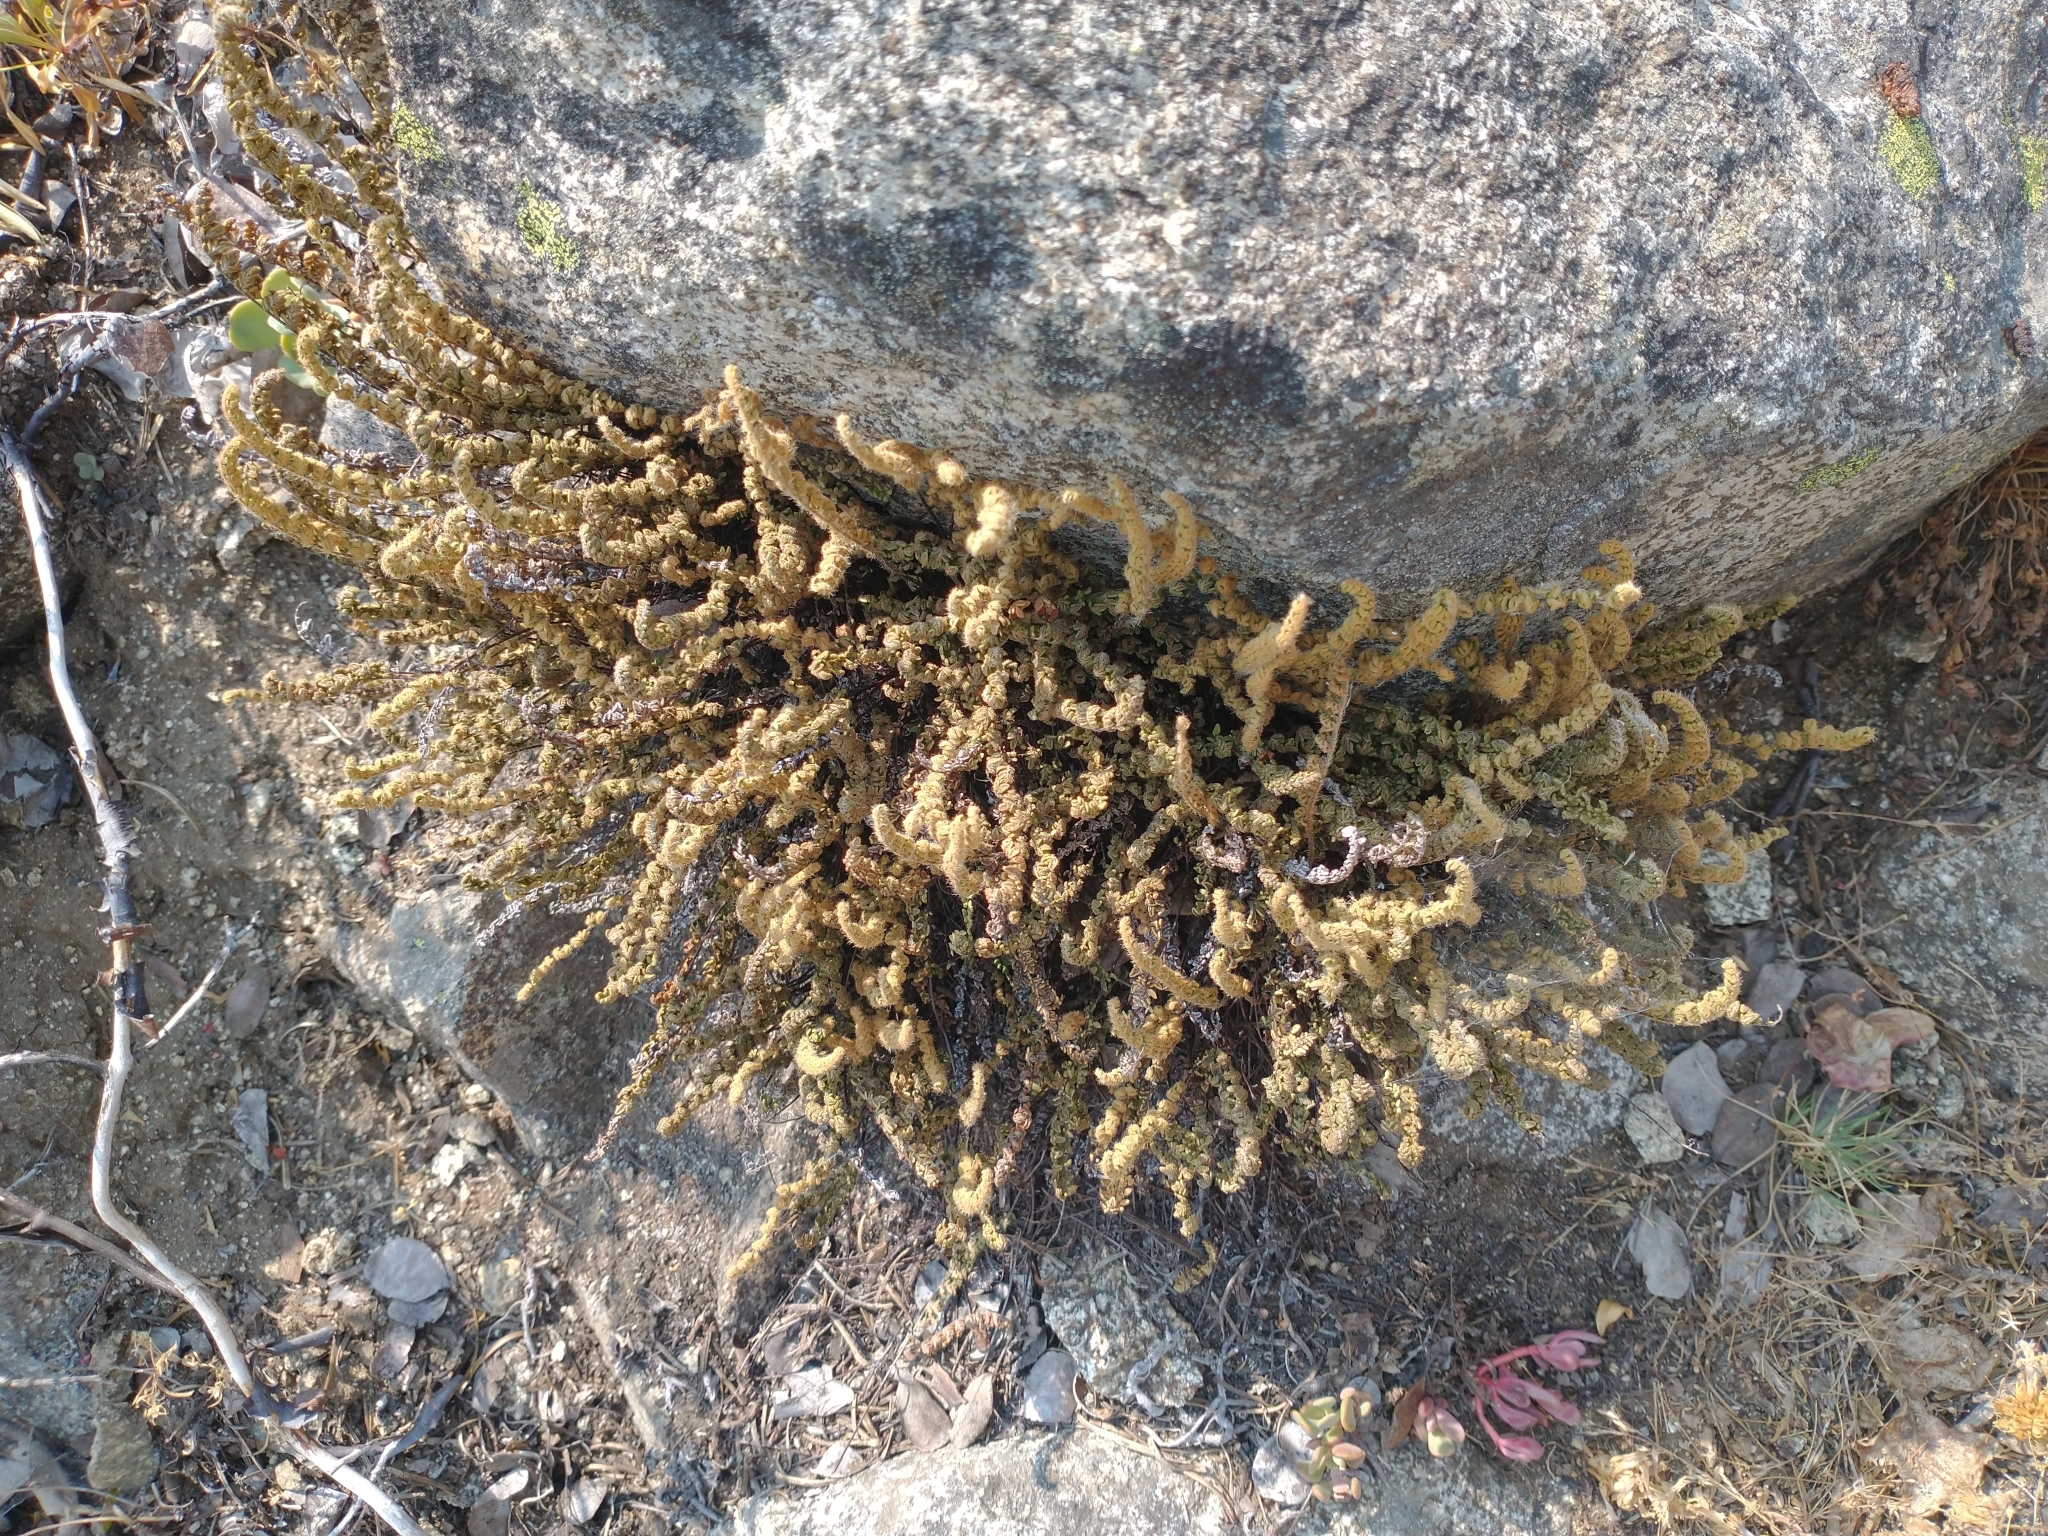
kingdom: Plantae
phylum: Tracheophyta
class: Polypodiopsida
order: Polypodiales
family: Pteridaceae
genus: Myriopteris
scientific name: Myriopteris gracillima
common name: Lace fern
